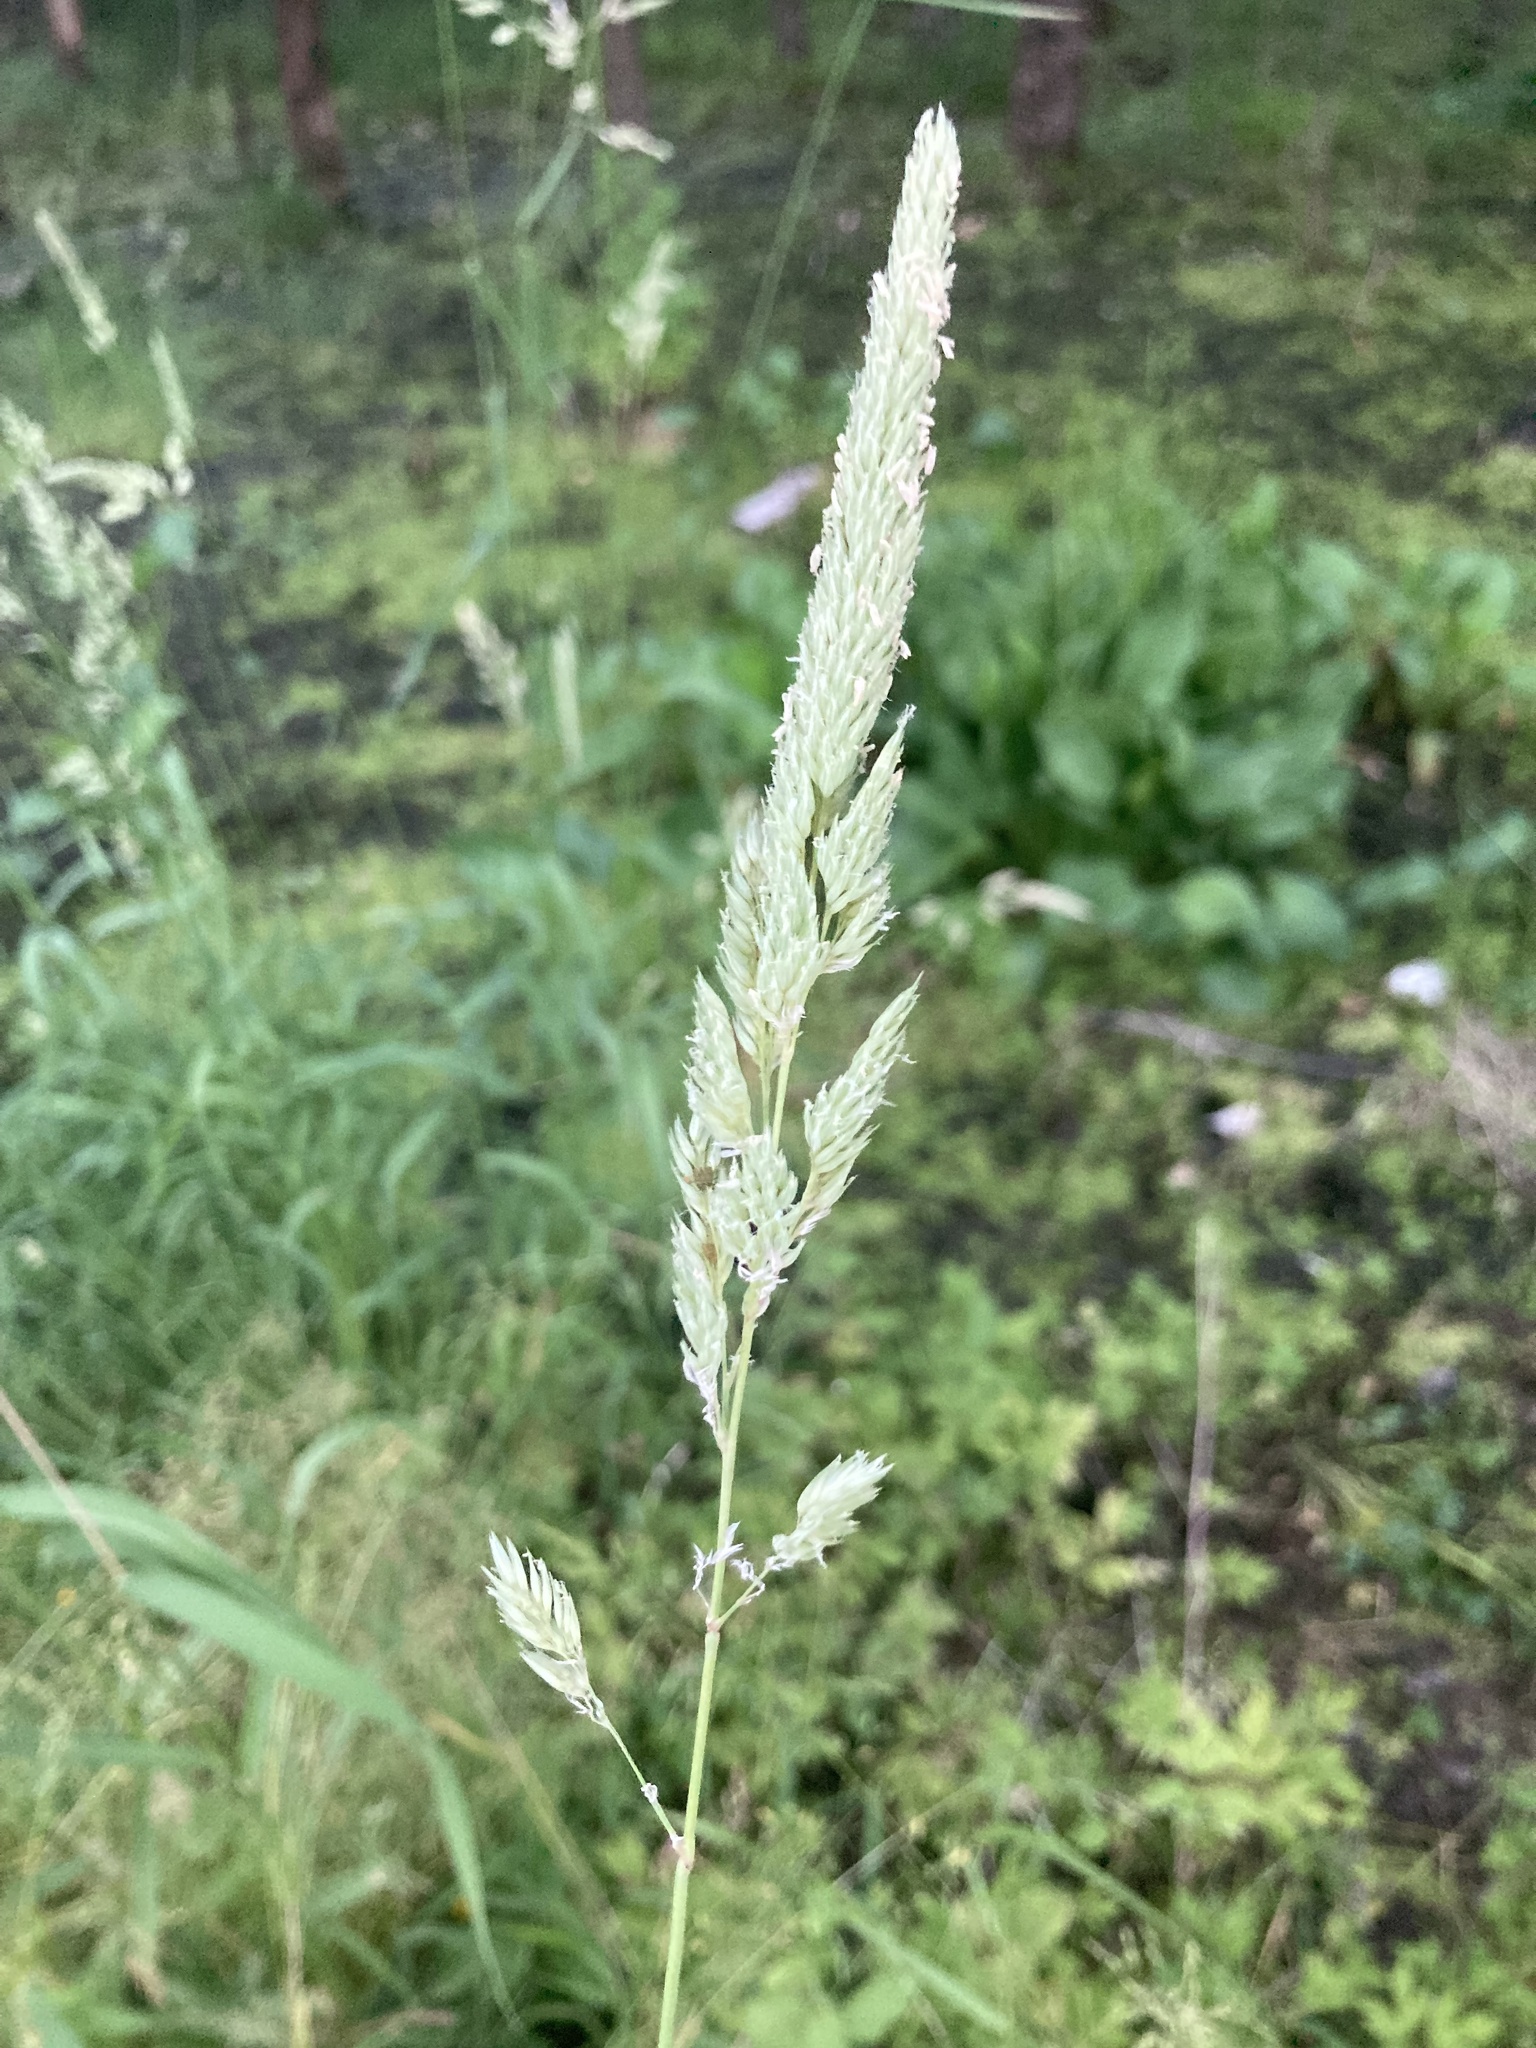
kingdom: Plantae
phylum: Tracheophyta
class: Liliopsida
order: Poales
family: Poaceae
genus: Phalaris
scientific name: Phalaris arundinacea
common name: Reed canary-grass
